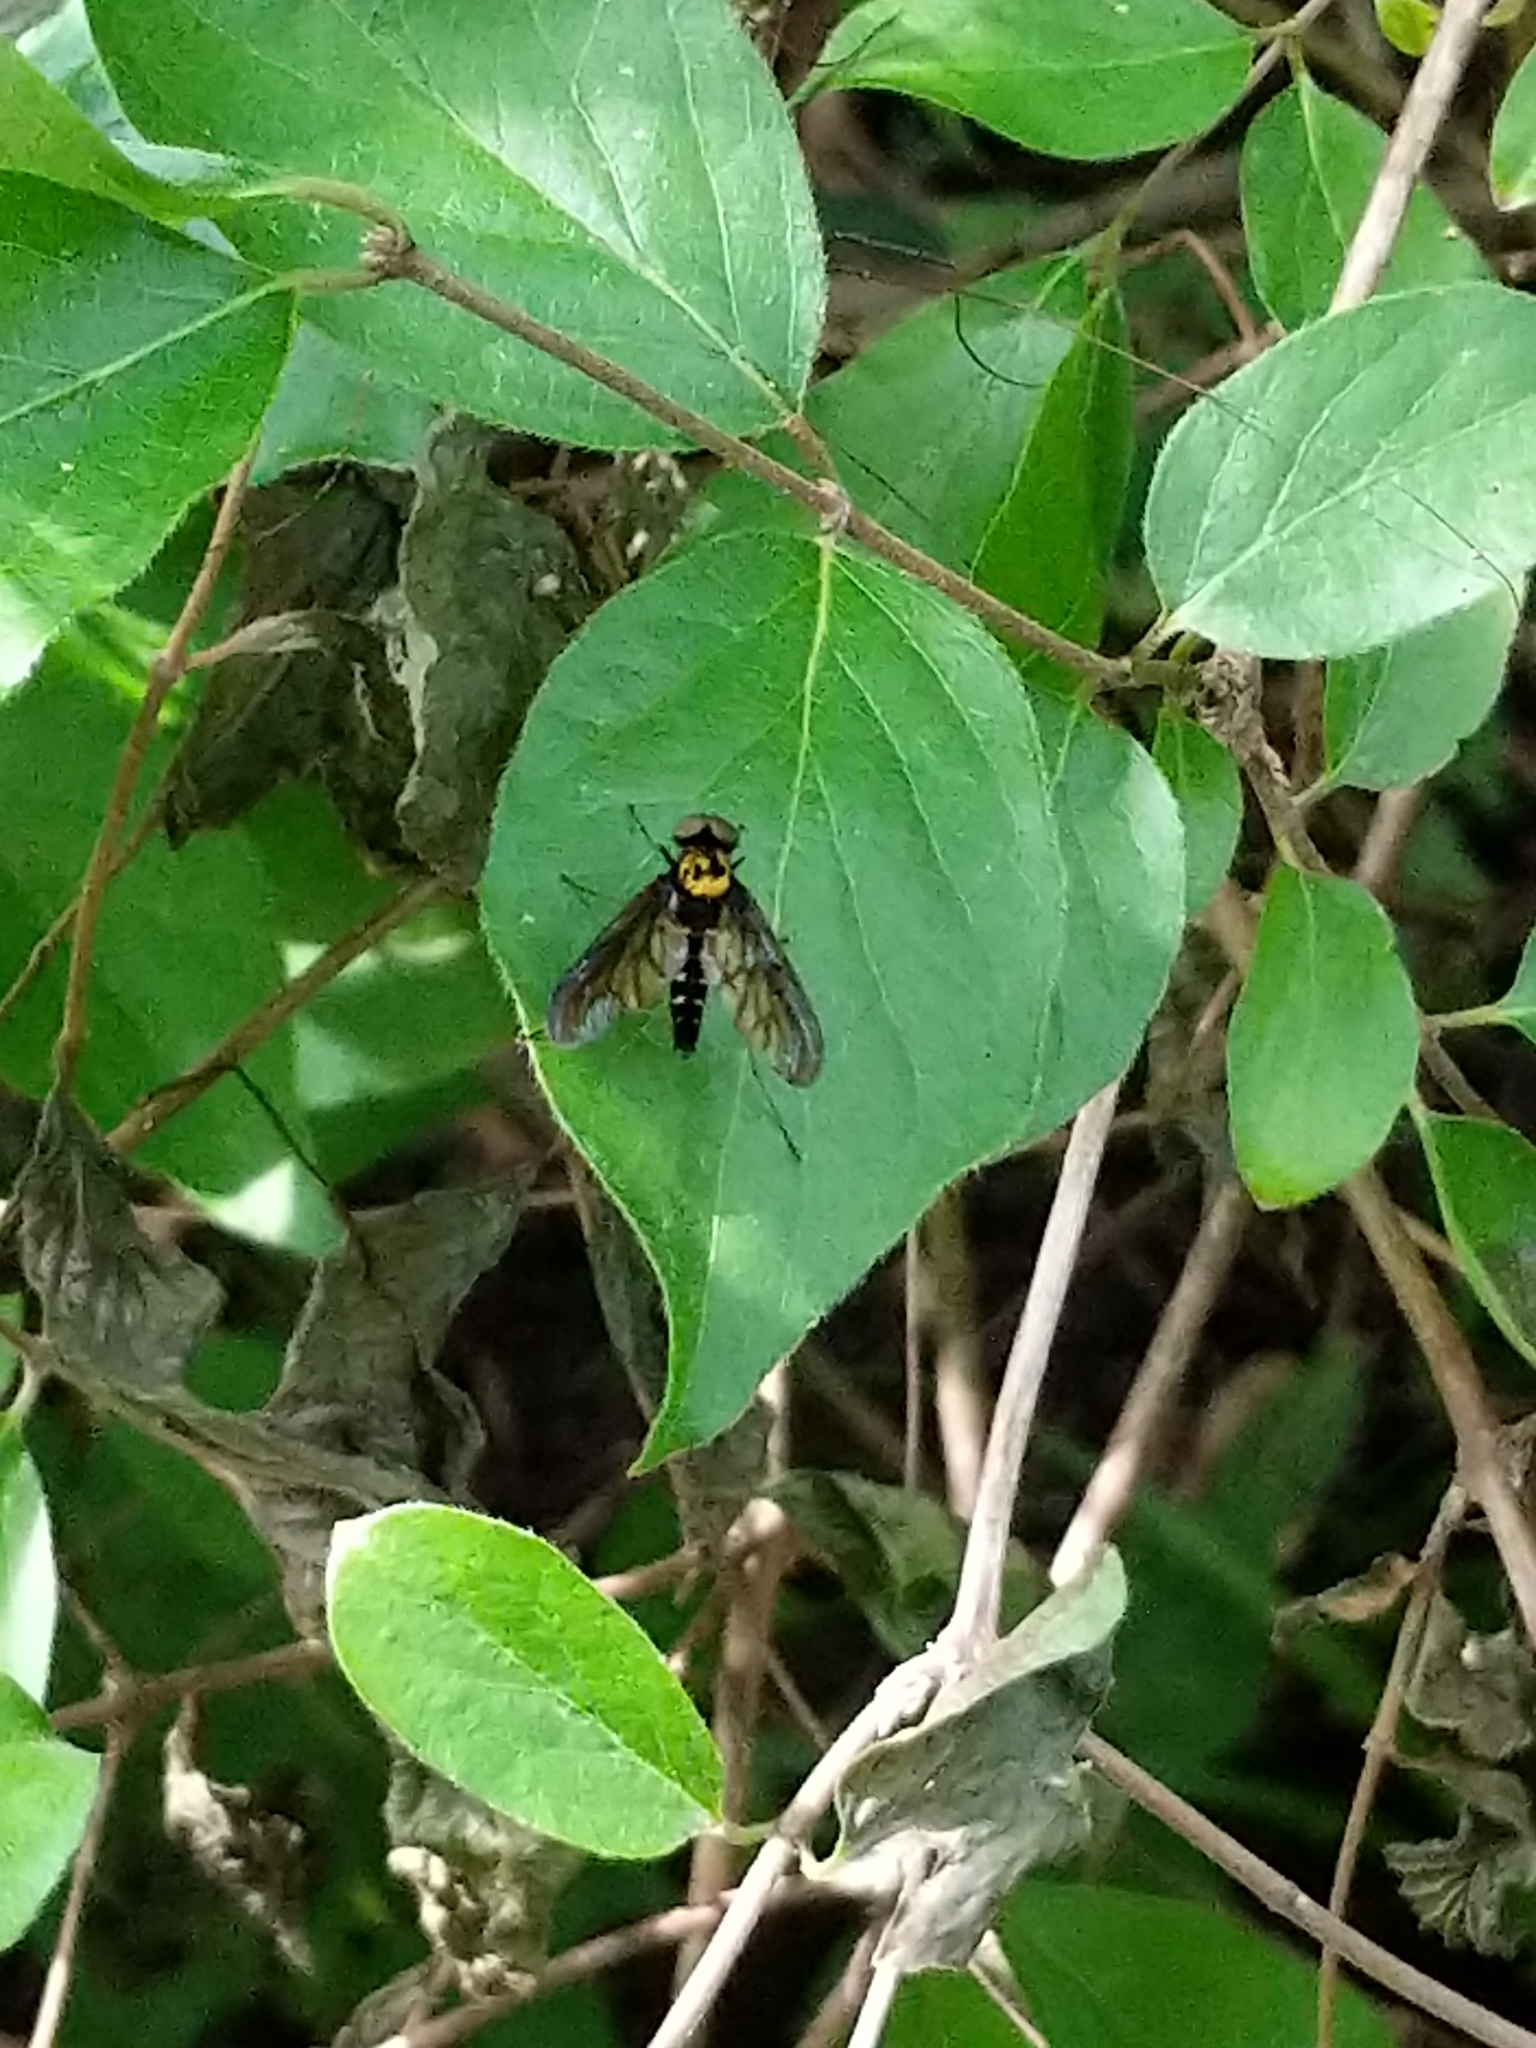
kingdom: Animalia
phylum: Arthropoda
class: Insecta
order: Diptera
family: Rhagionidae
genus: Chrysopilus
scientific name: Chrysopilus thoracicus
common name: Golden-backed snipe fly
